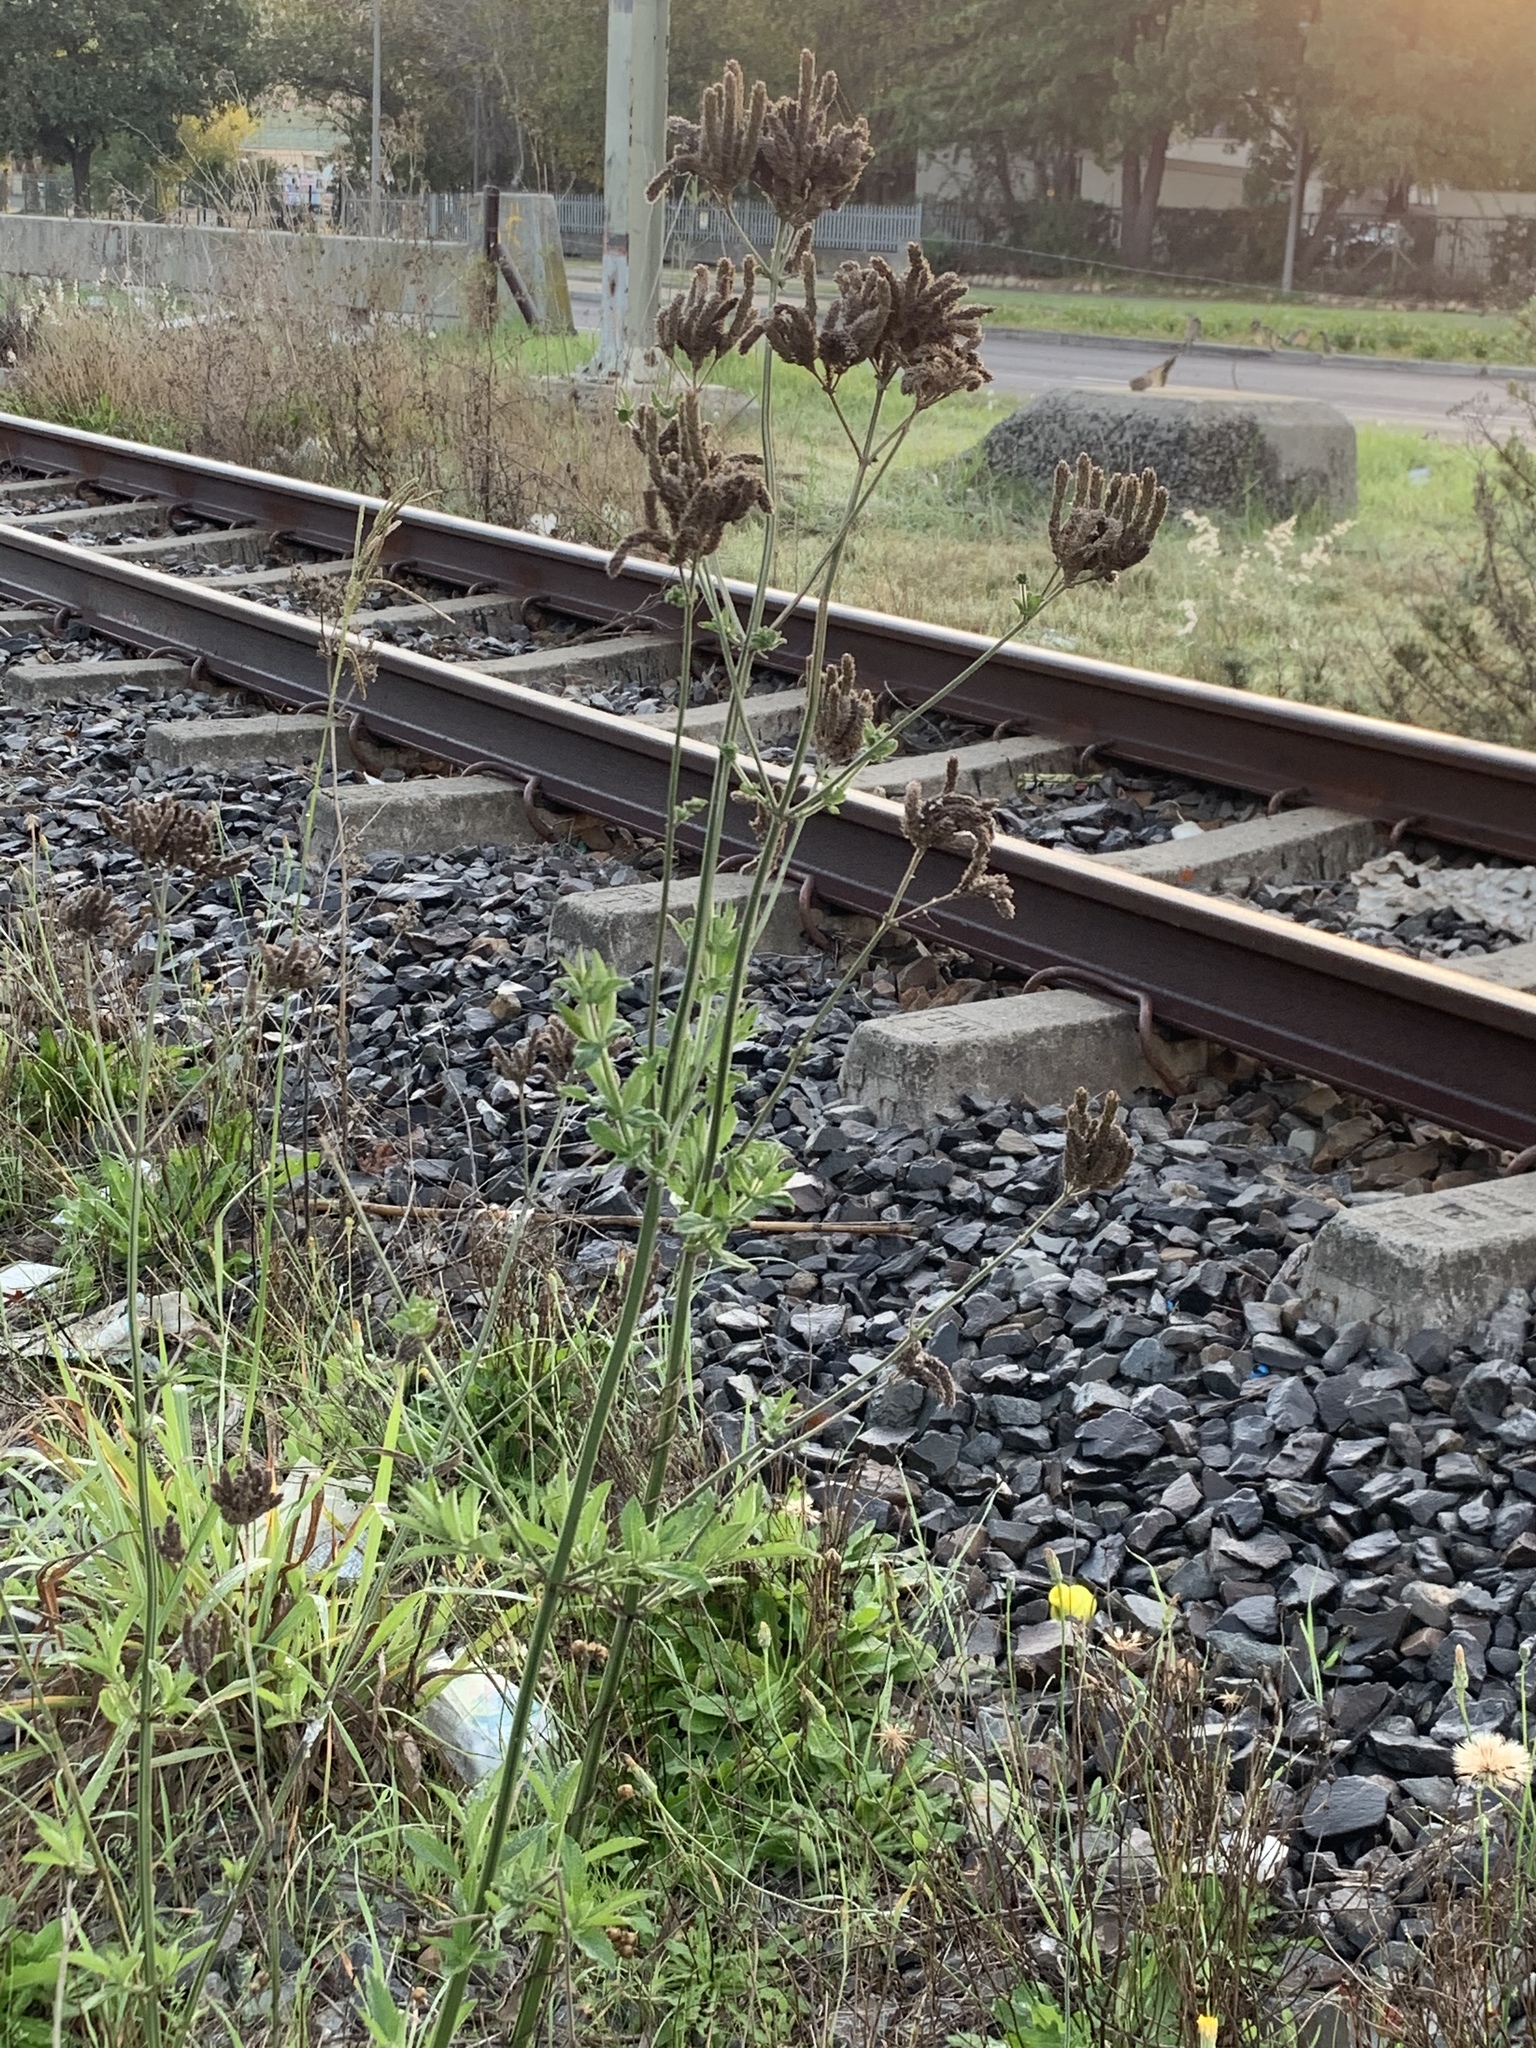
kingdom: Plantae
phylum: Tracheophyta
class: Magnoliopsida
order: Lamiales
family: Verbenaceae
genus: Verbena
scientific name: Verbena bonariensis
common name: Purpletop vervain
